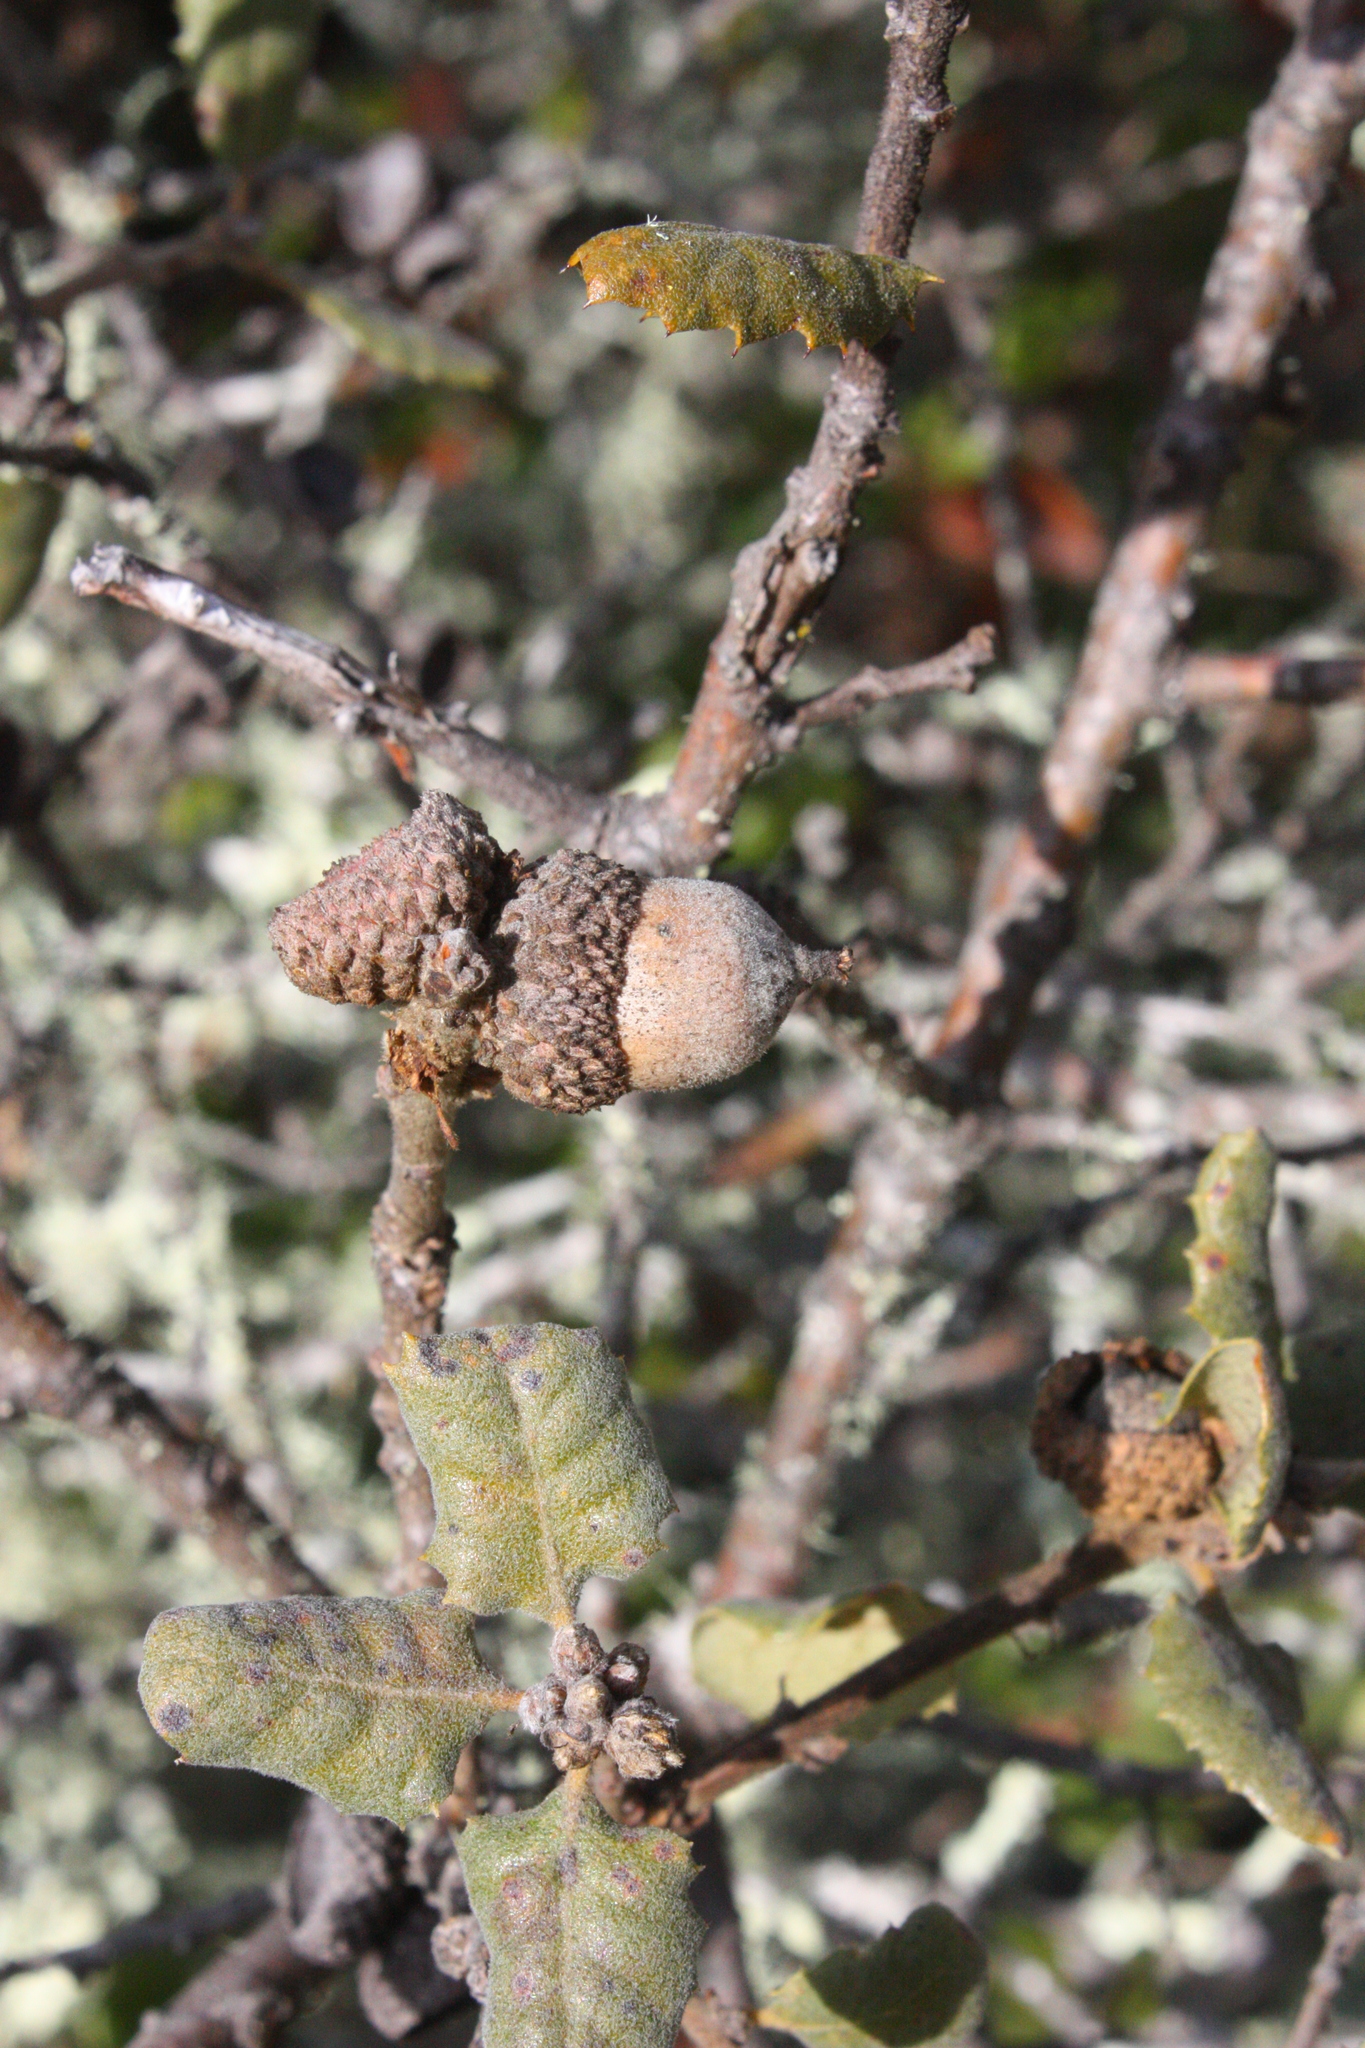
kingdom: Plantae
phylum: Tracheophyta
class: Magnoliopsida
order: Fagales
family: Fagaceae
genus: Quercus
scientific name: Quercus durata
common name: Leather oak
